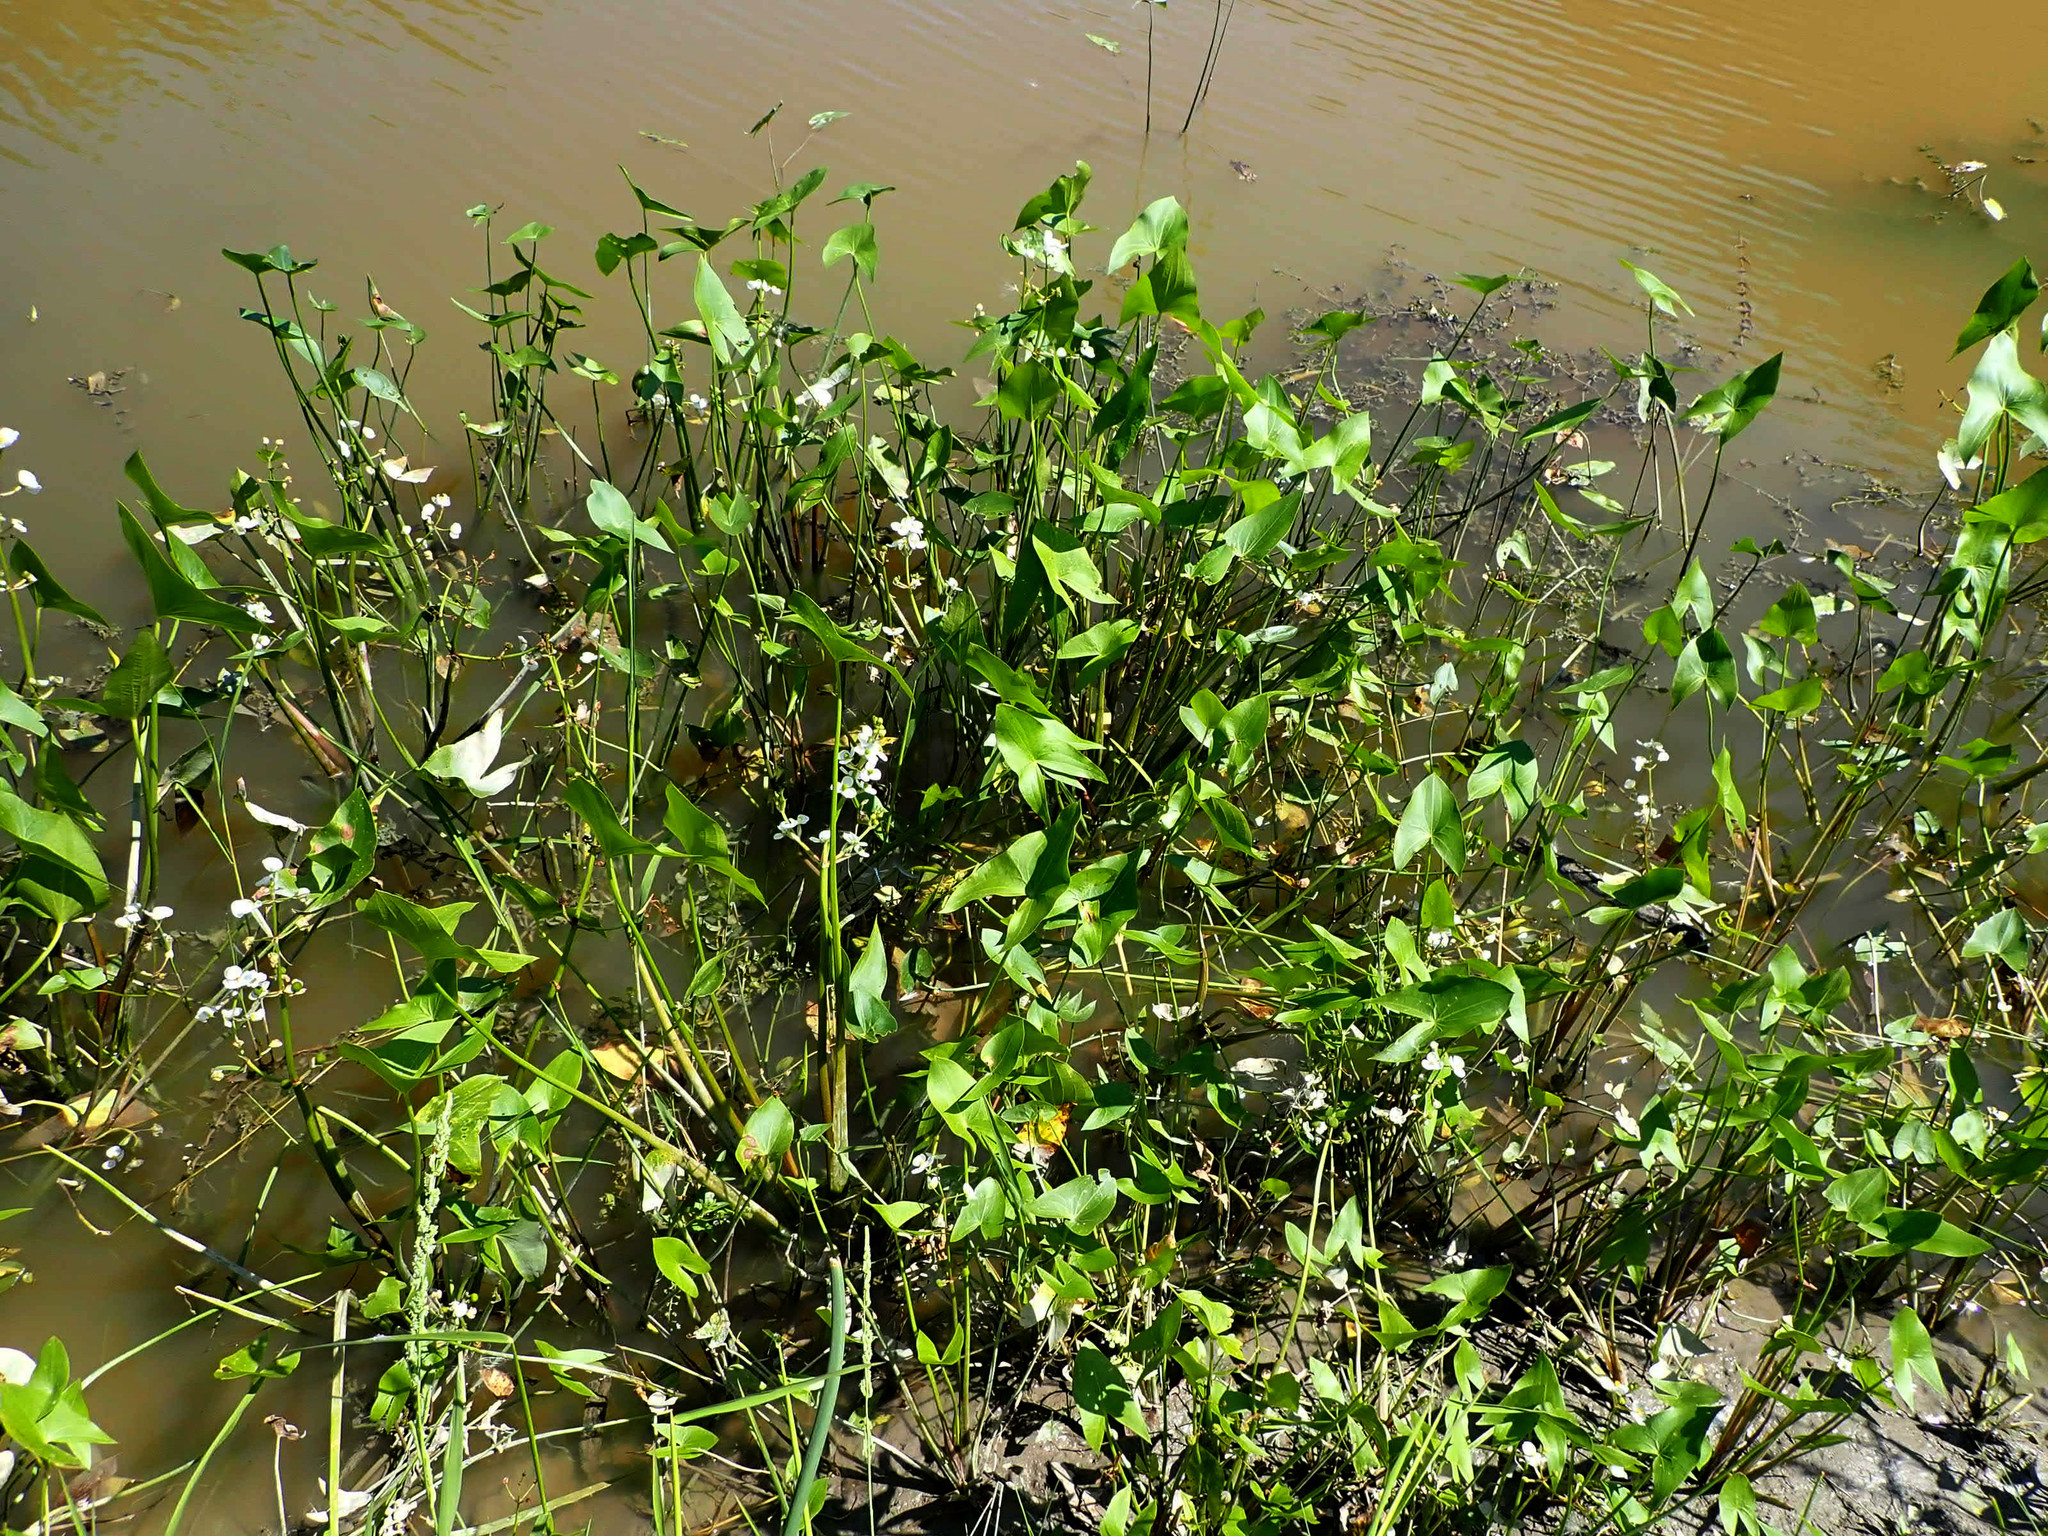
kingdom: Plantae
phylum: Tracheophyta
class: Liliopsida
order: Alismatales
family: Alismataceae
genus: Sagittaria
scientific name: Sagittaria cuneata
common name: Northern arrowhead
